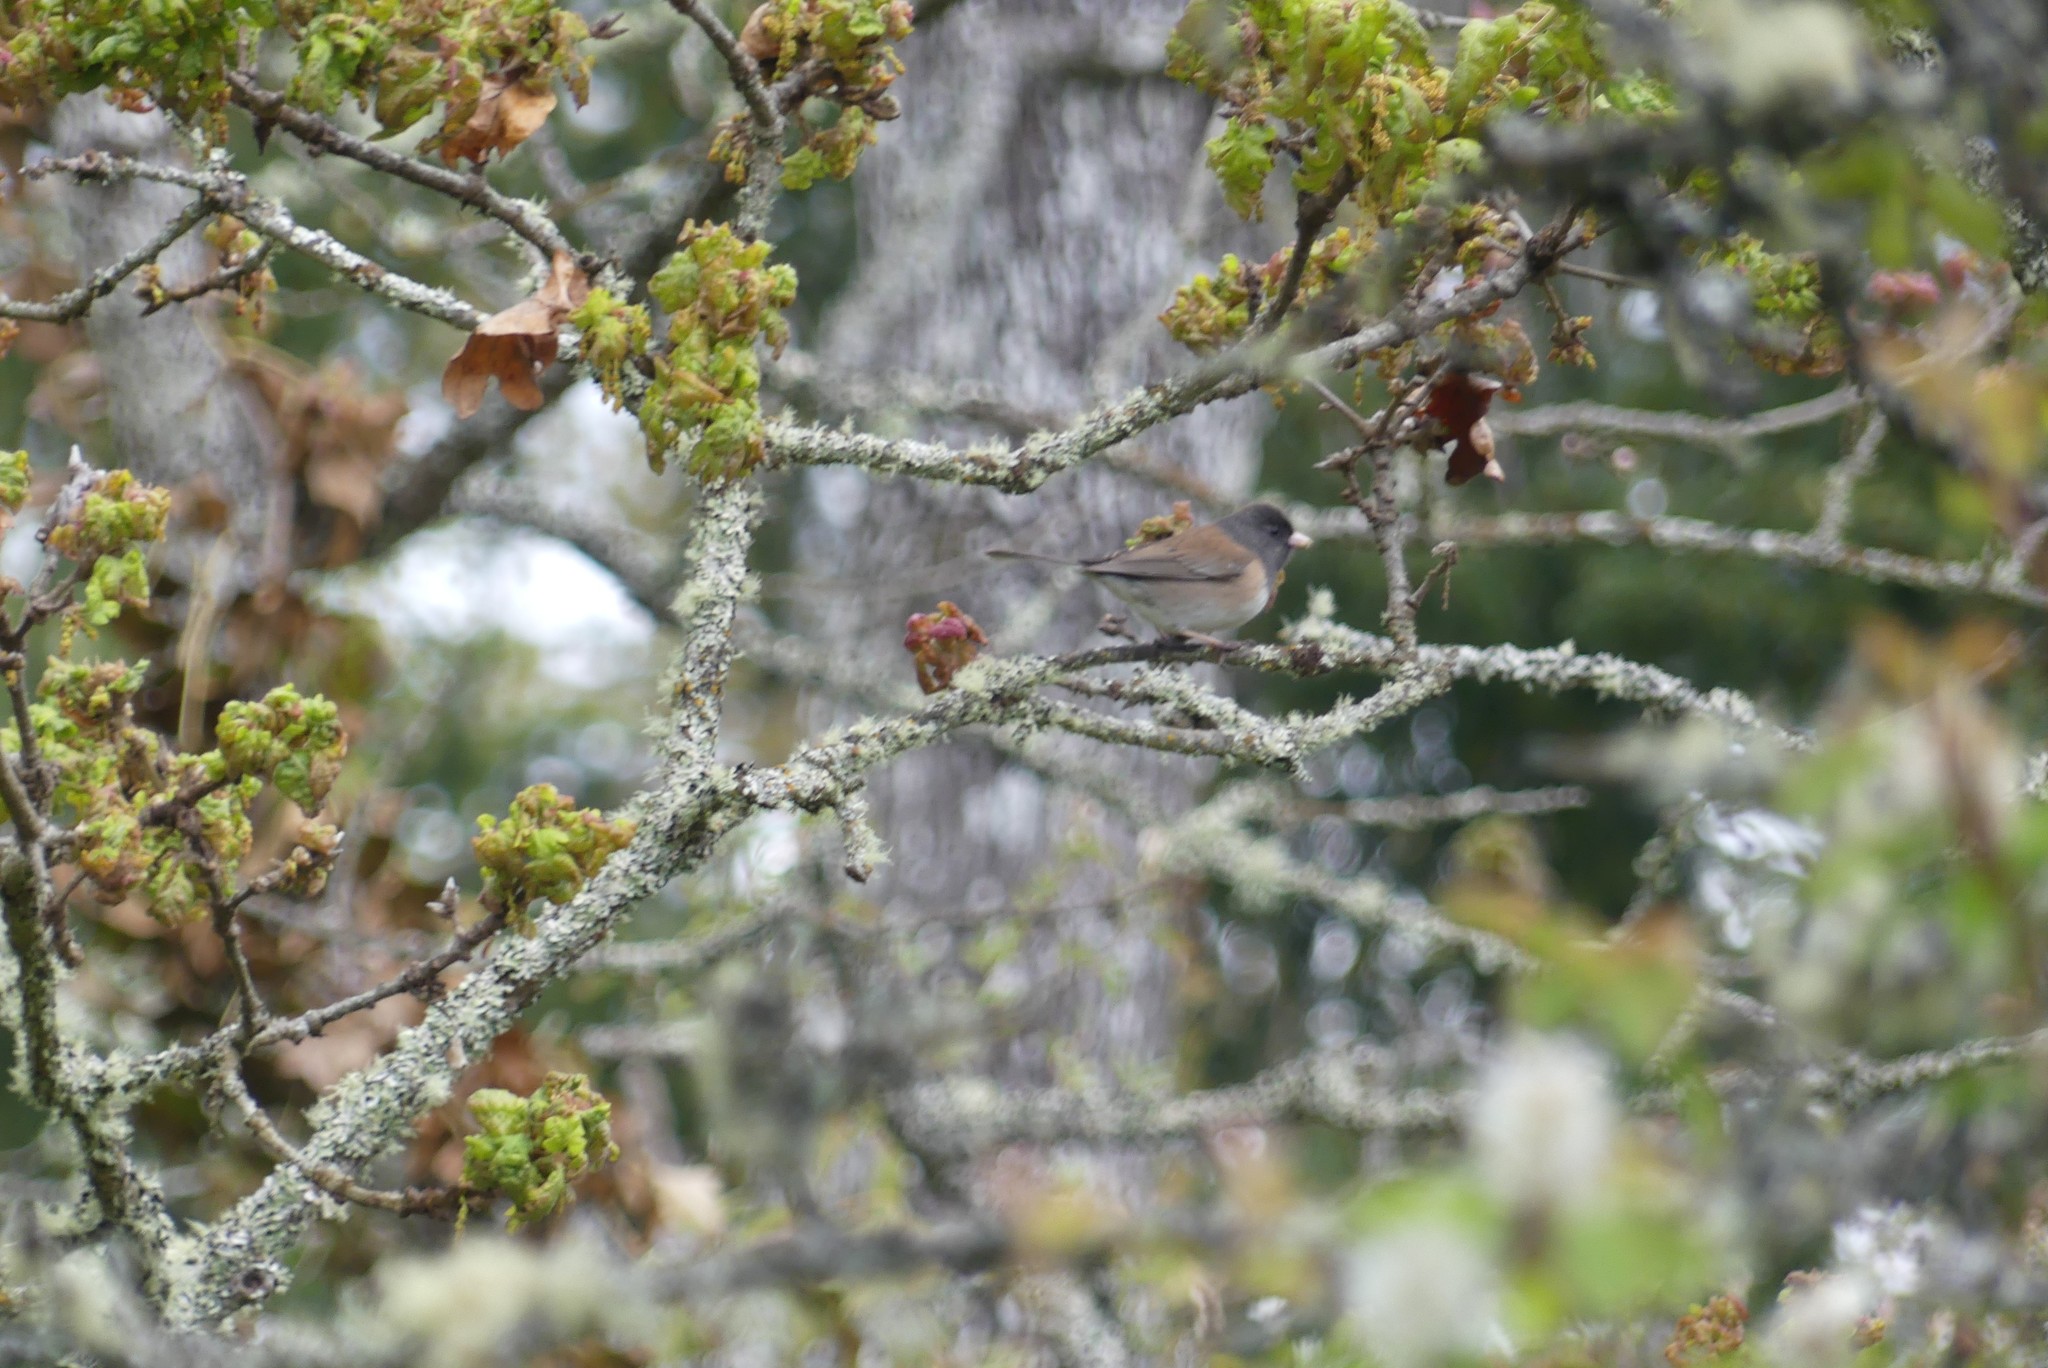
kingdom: Animalia
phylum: Chordata
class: Aves
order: Passeriformes
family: Passerellidae
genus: Junco
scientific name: Junco hyemalis
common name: Dark-eyed junco
